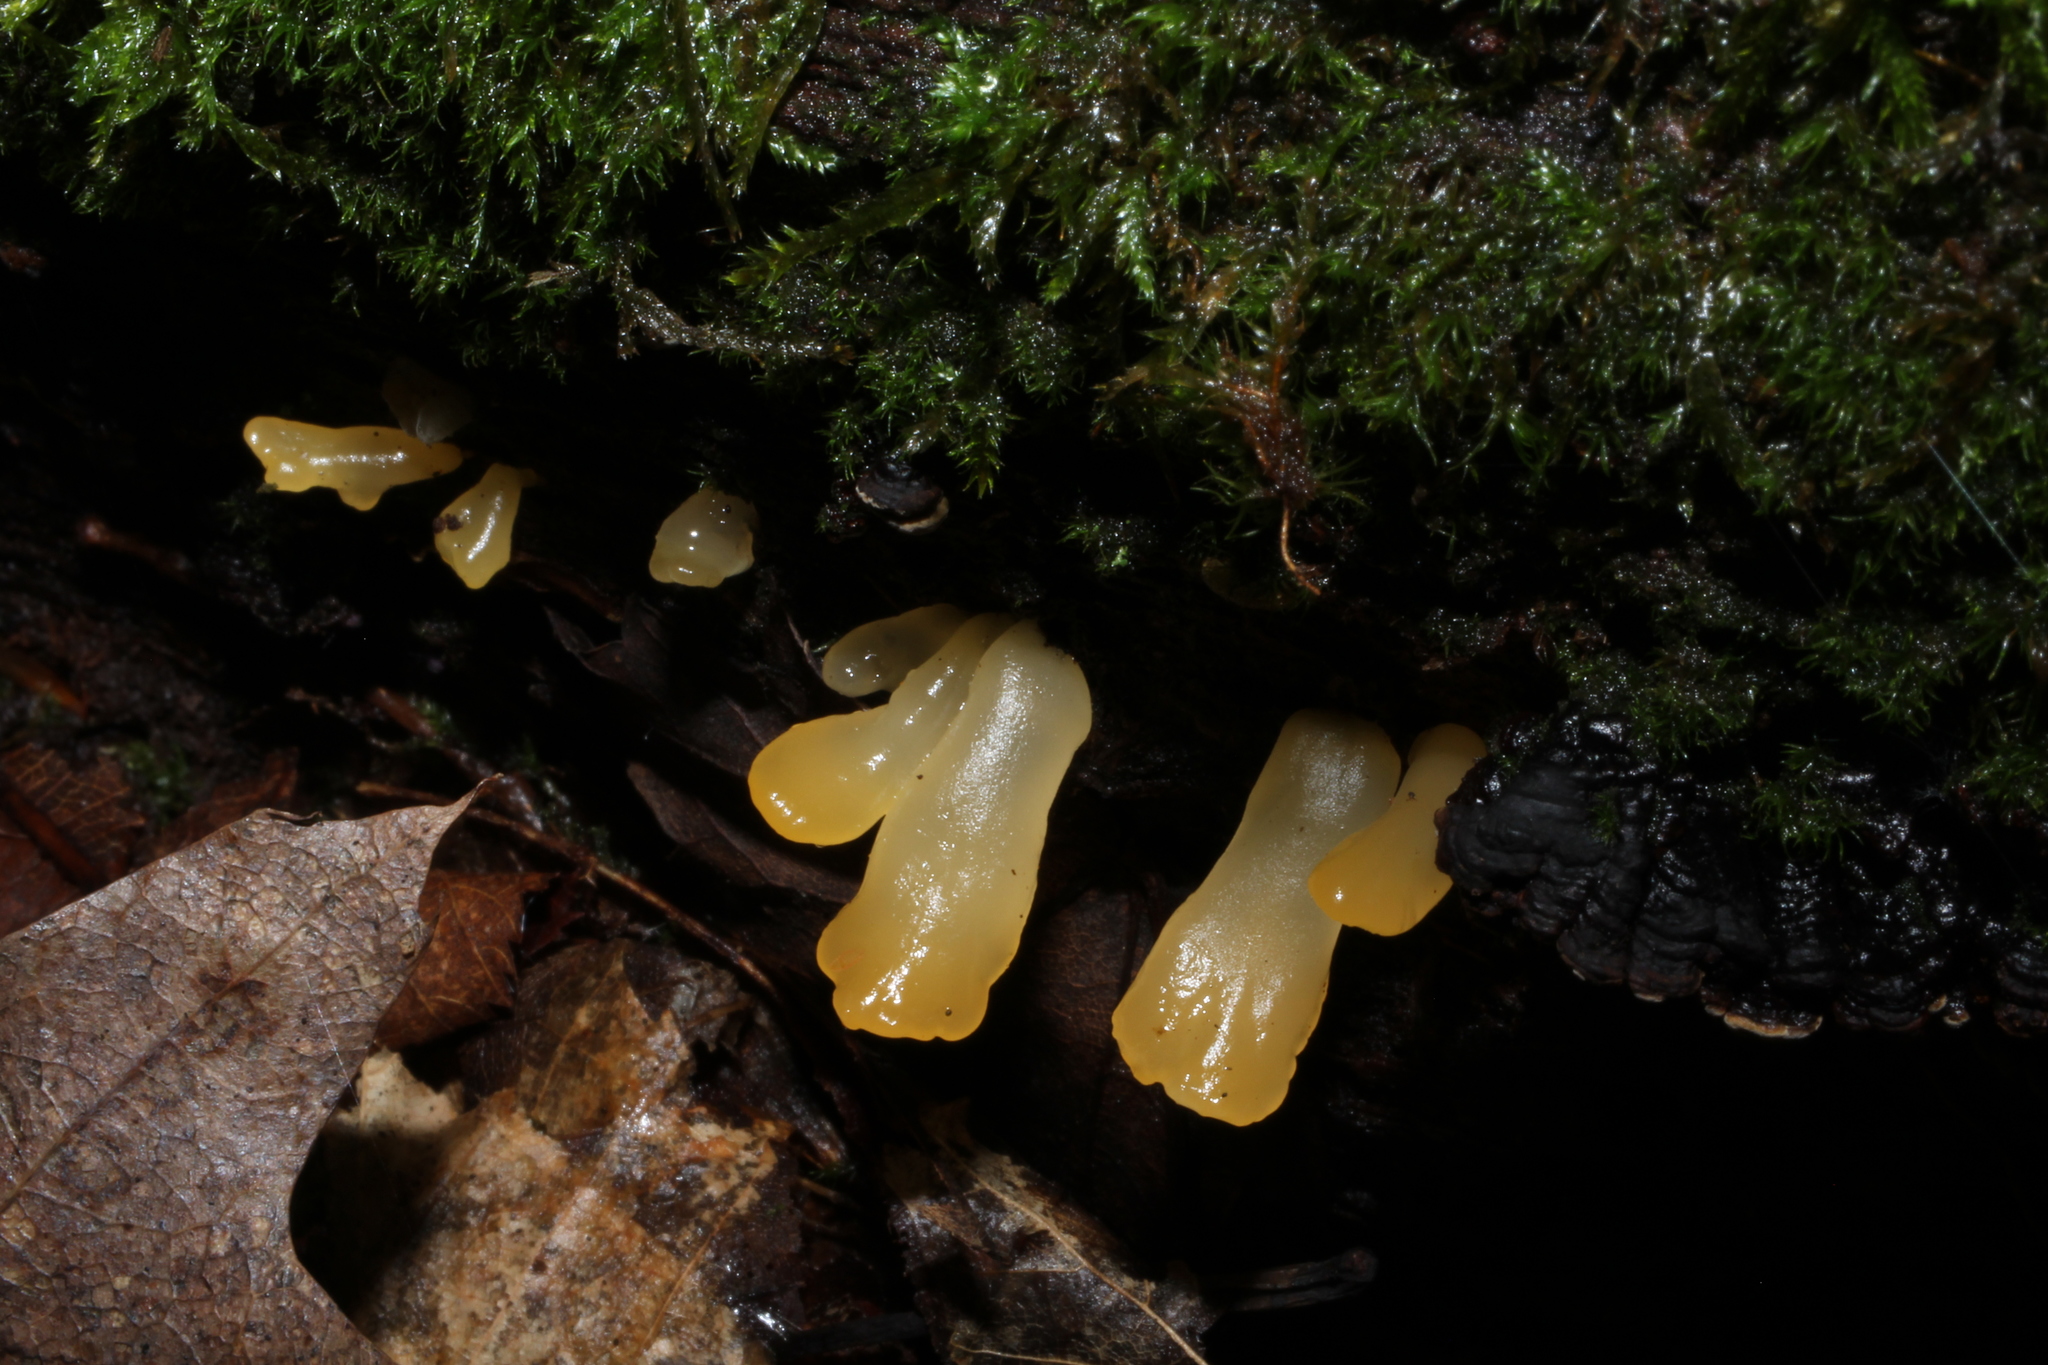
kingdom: Fungi
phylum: Basidiomycota
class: Dacrymycetes
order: Dacrymycetales
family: Dacrymycetaceae
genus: Dacrymyces
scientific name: Dacrymyces spathularius
